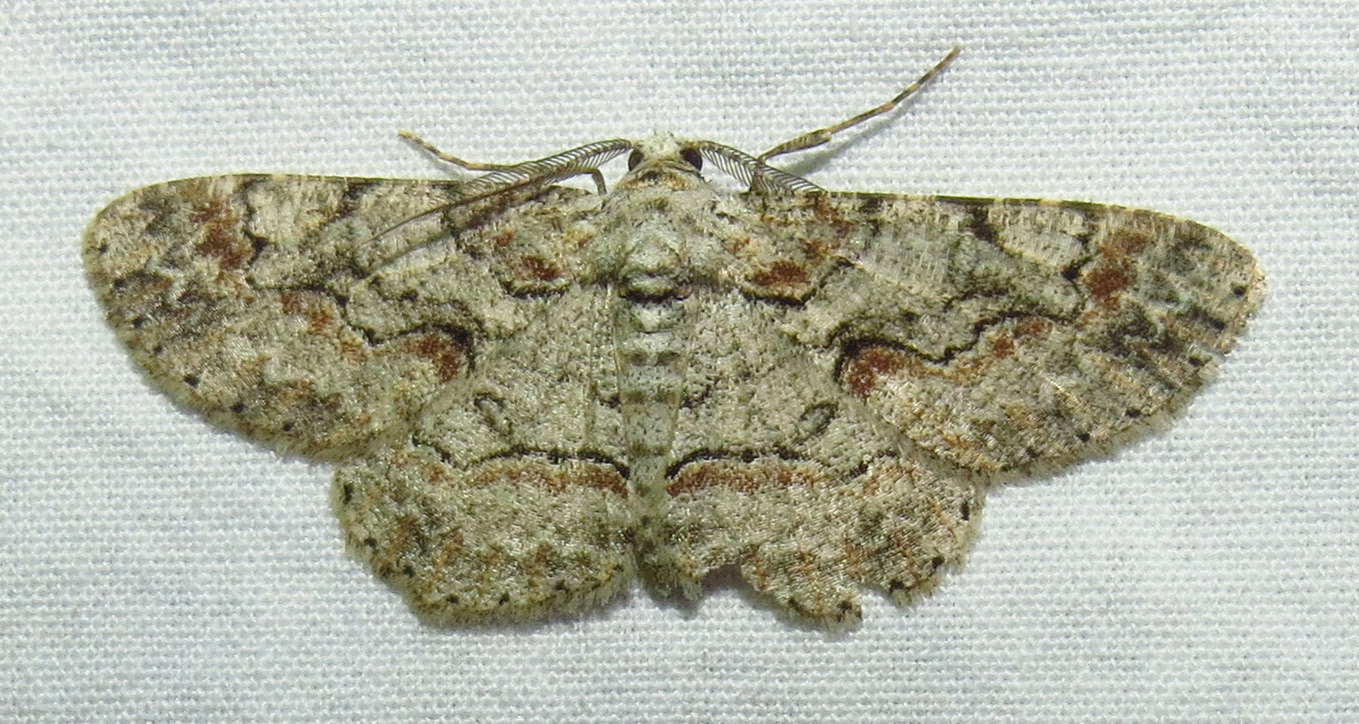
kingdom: Animalia
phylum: Arthropoda
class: Insecta
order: Lepidoptera
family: Geometridae
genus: Iridopsis
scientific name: Iridopsis defectaria
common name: Brown-shaded gray
